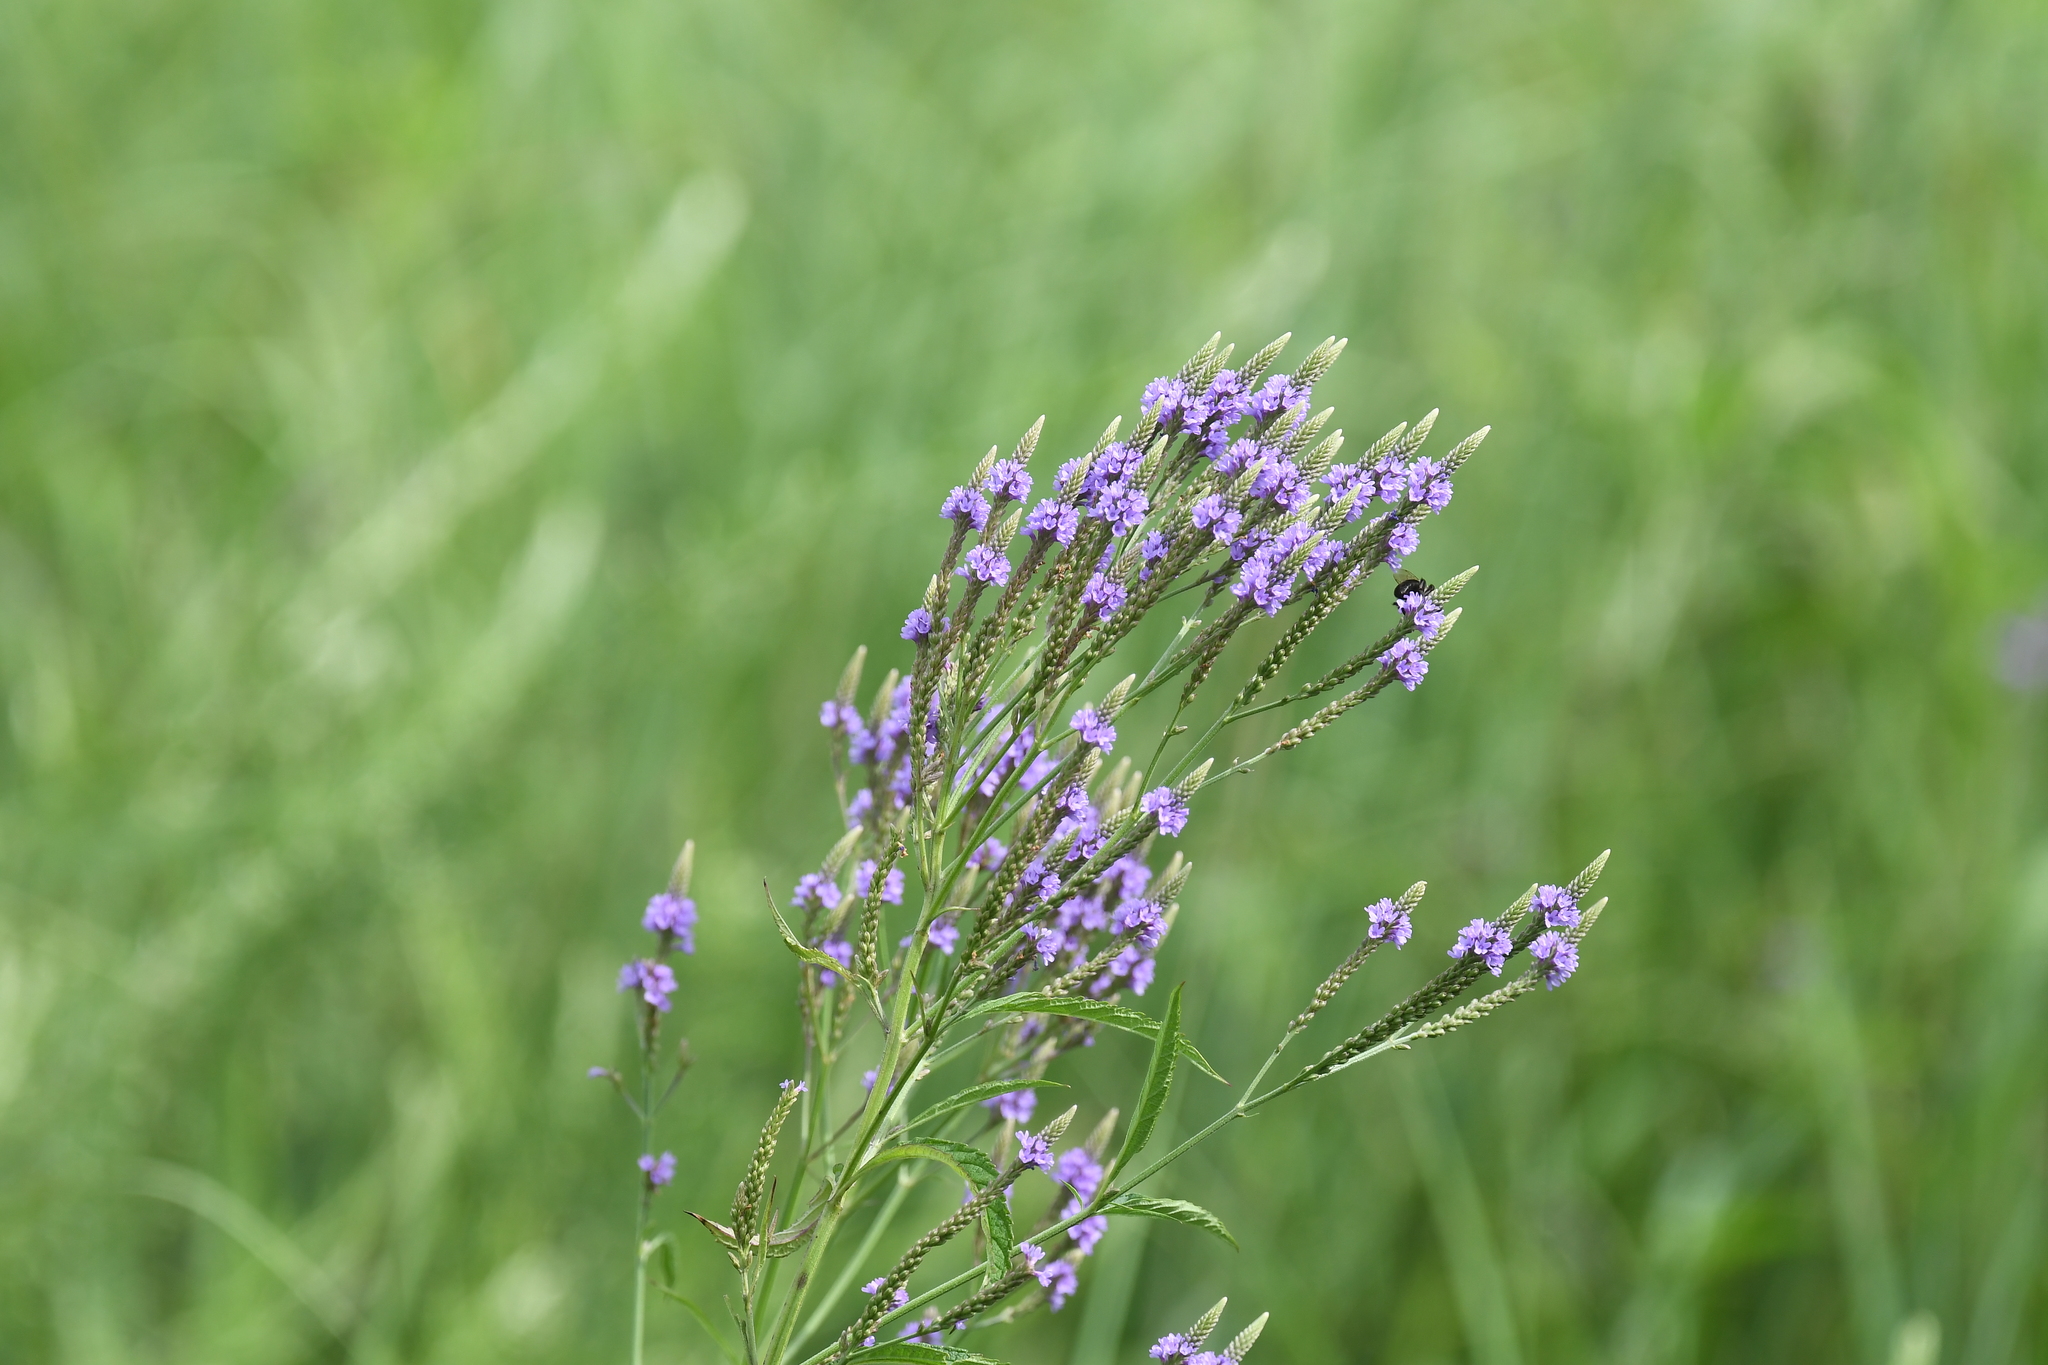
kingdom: Plantae
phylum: Tracheophyta
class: Magnoliopsida
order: Lamiales
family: Verbenaceae
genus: Verbena
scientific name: Verbena hastata
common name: American blue vervain
